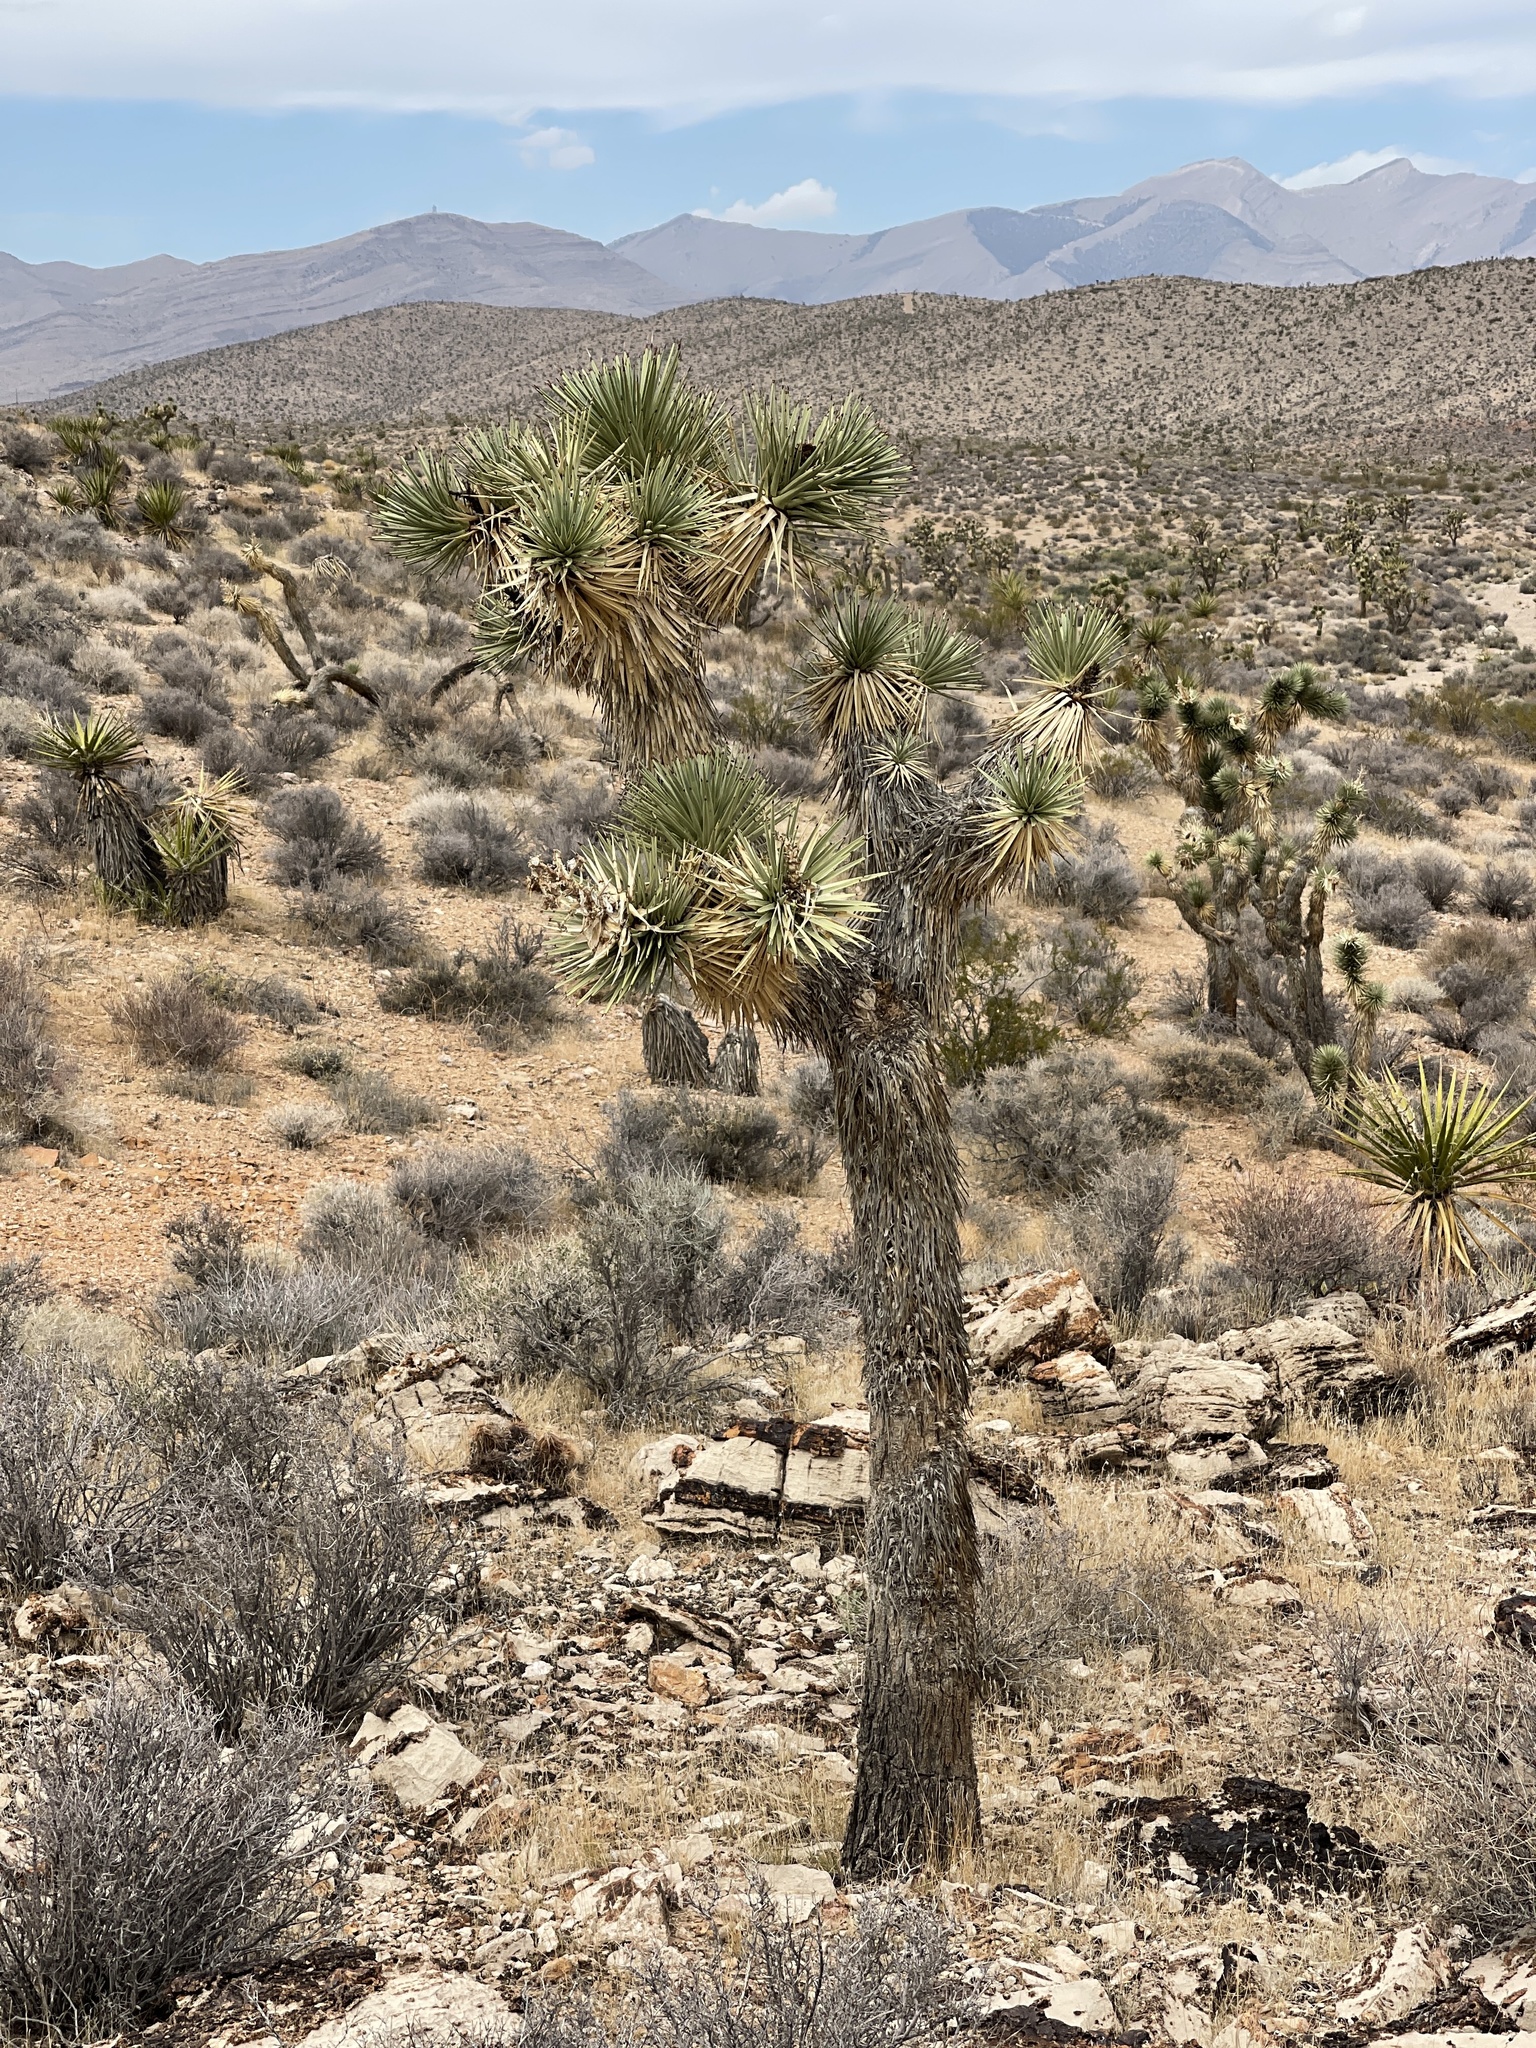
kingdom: Plantae
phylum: Tracheophyta
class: Liliopsida
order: Asparagales
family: Asparagaceae
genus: Yucca
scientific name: Yucca brevifolia
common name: Joshua tree
